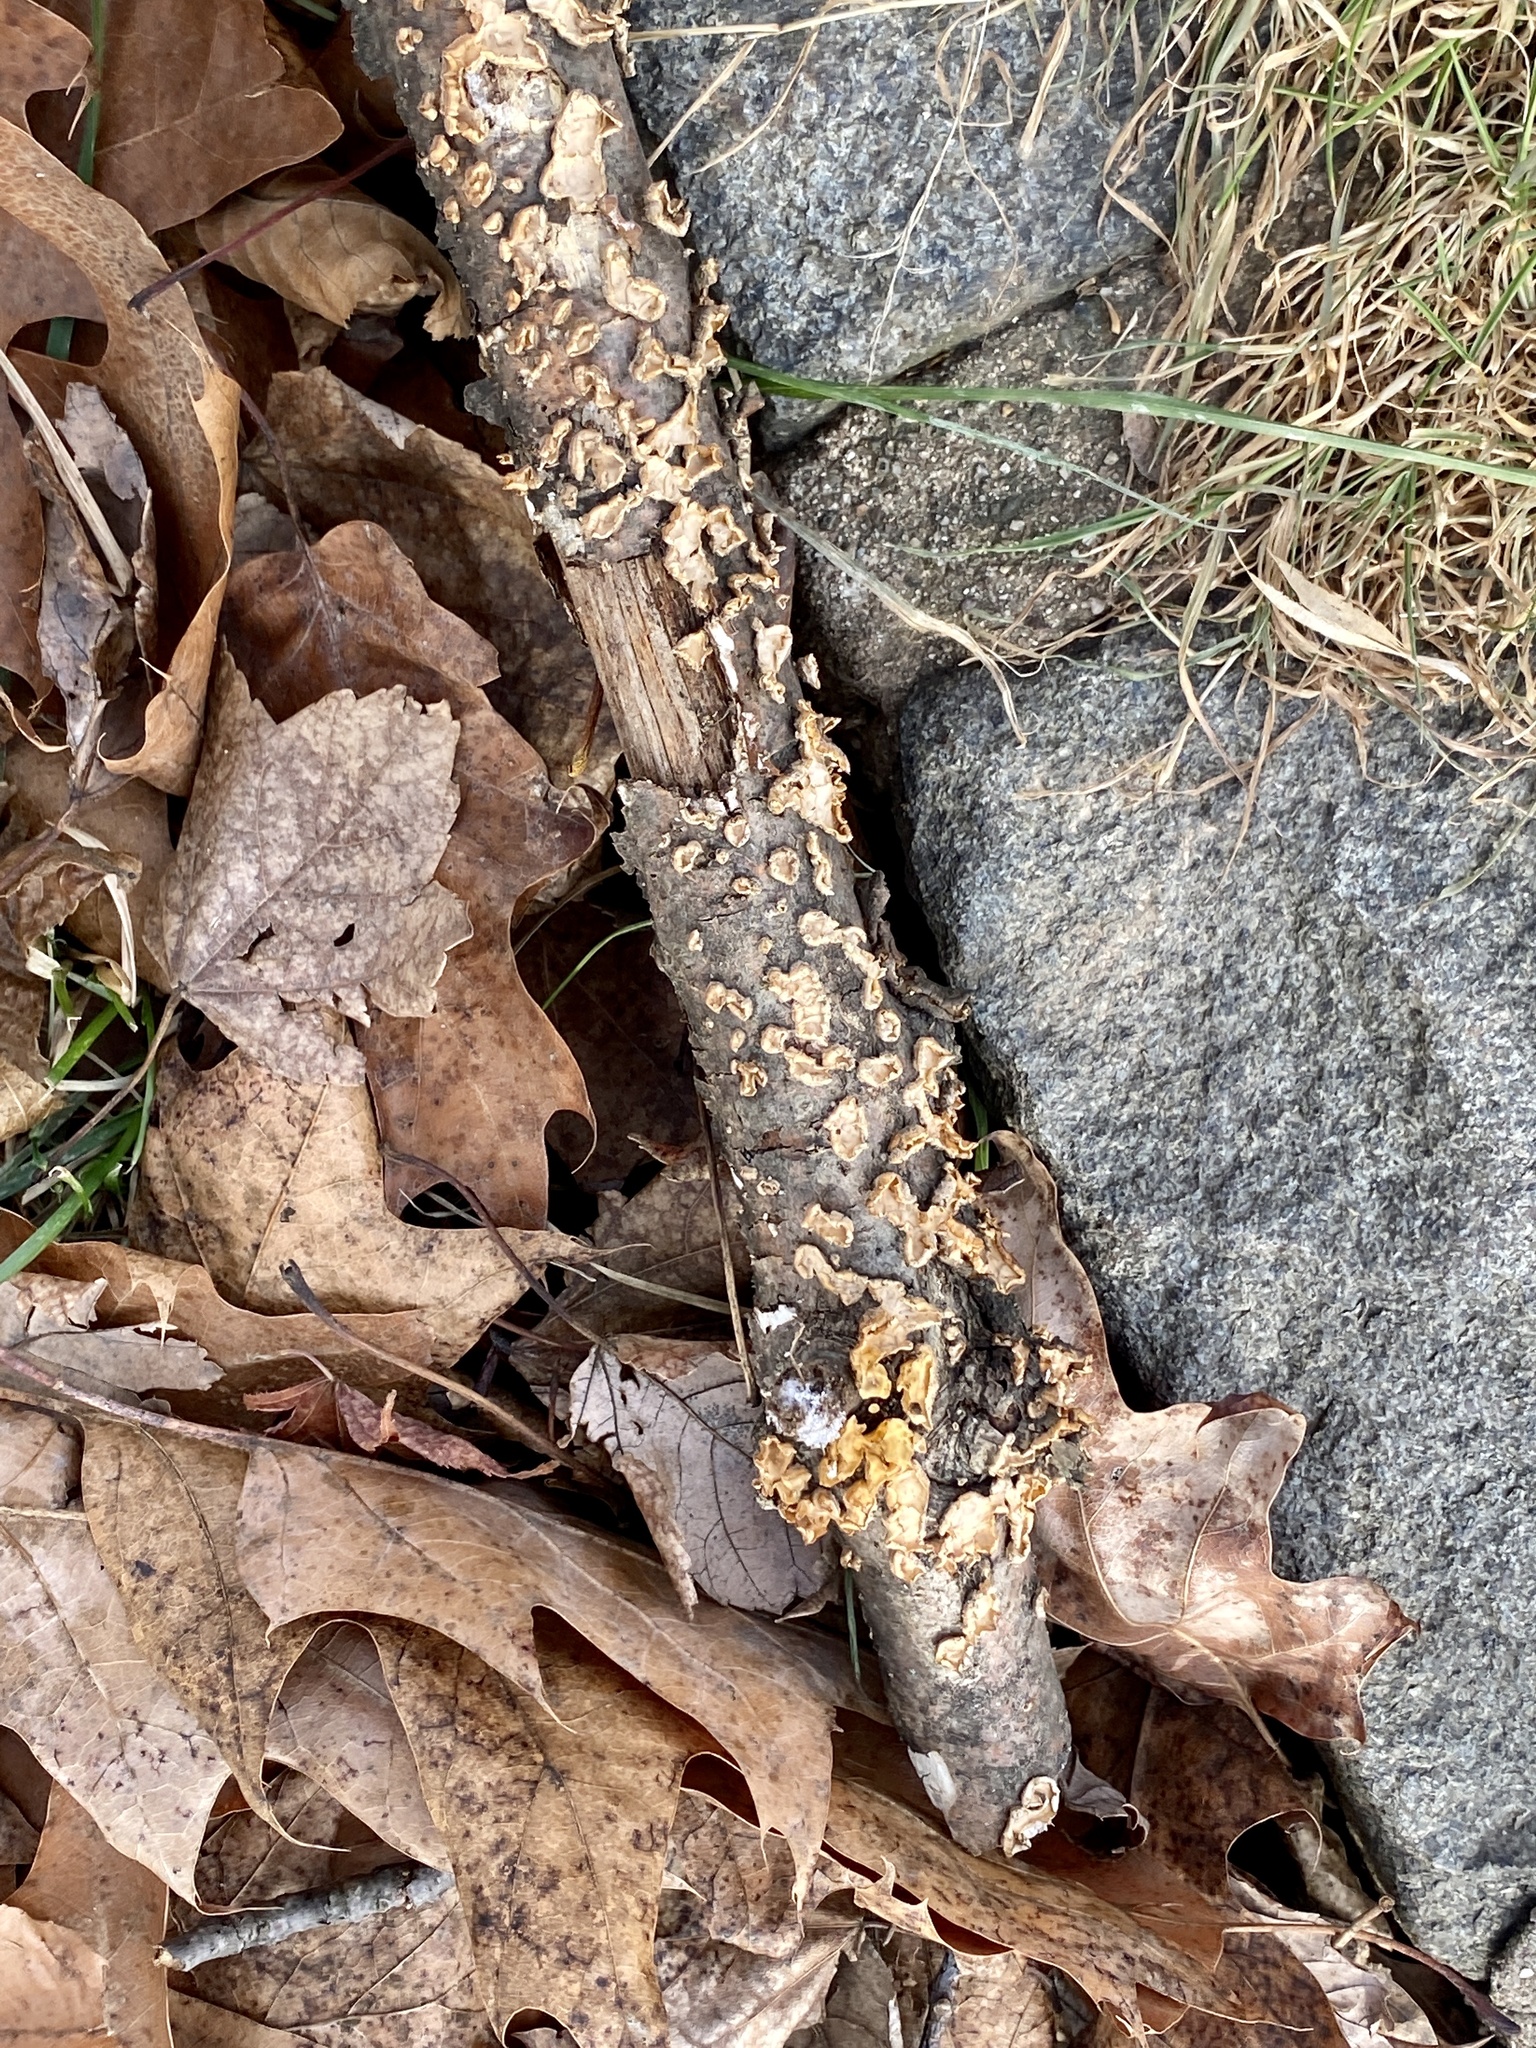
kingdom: Fungi
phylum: Basidiomycota
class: Agaricomycetes
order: Russulales
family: Stereaceae
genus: Stereum
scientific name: Stereum complicatum
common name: Crowded parchment
